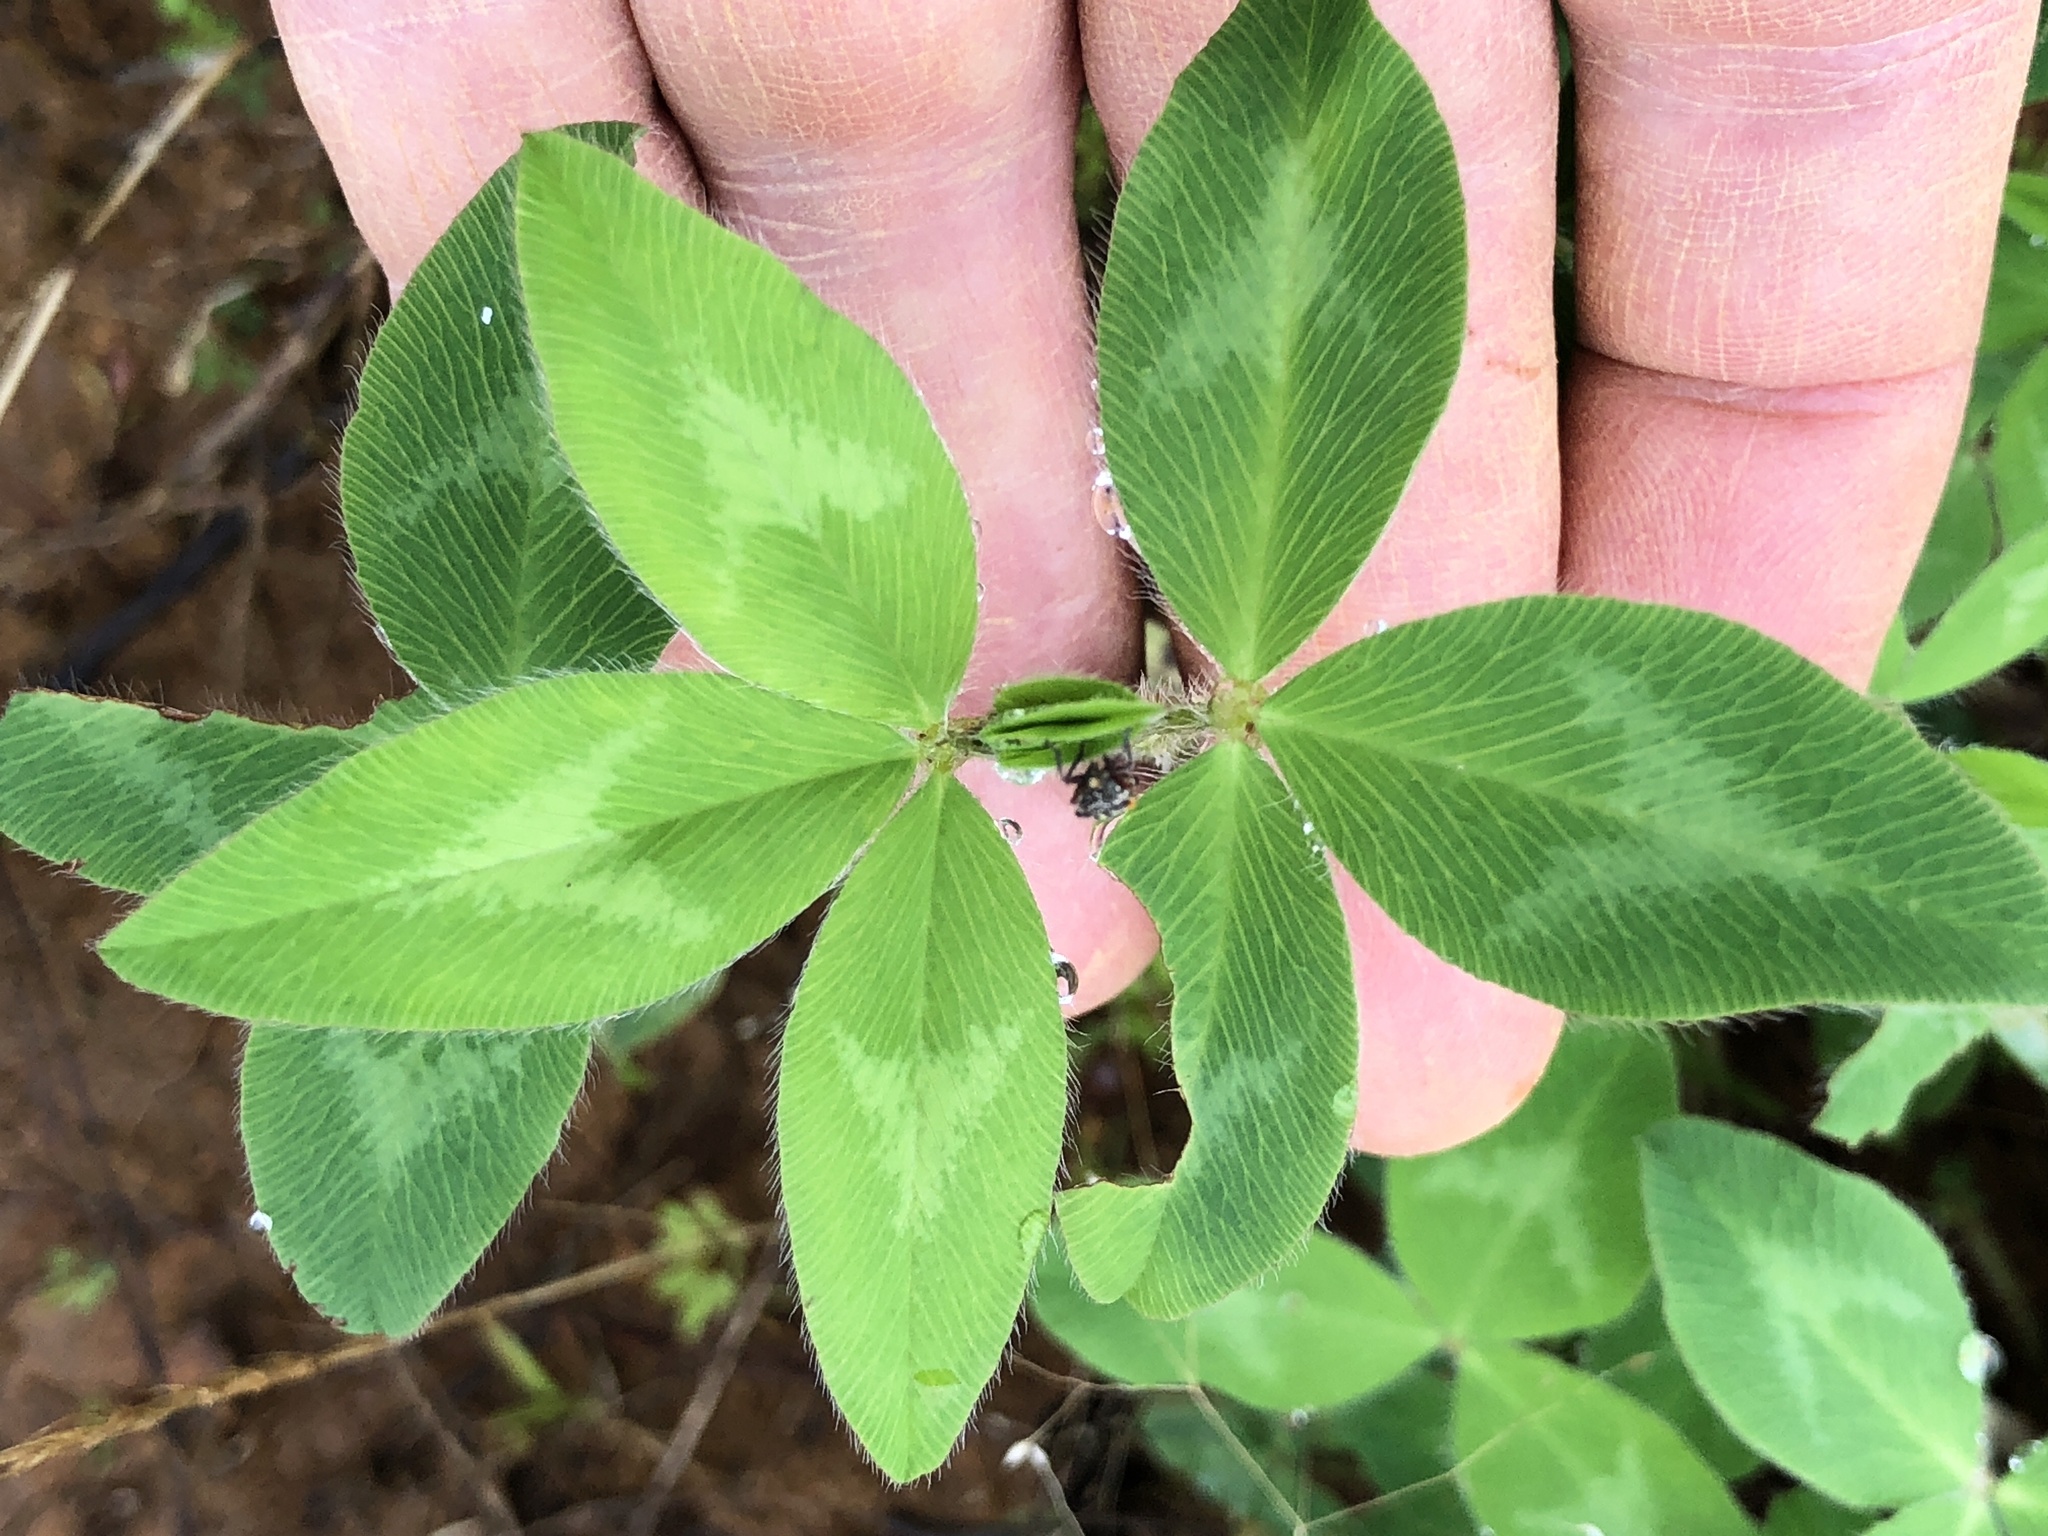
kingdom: Plantae
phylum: Tracheophyta
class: Magnoliopsida
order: Fabales
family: Fabaceae
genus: Trifolium
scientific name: Trifolium pratense
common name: Red clover
